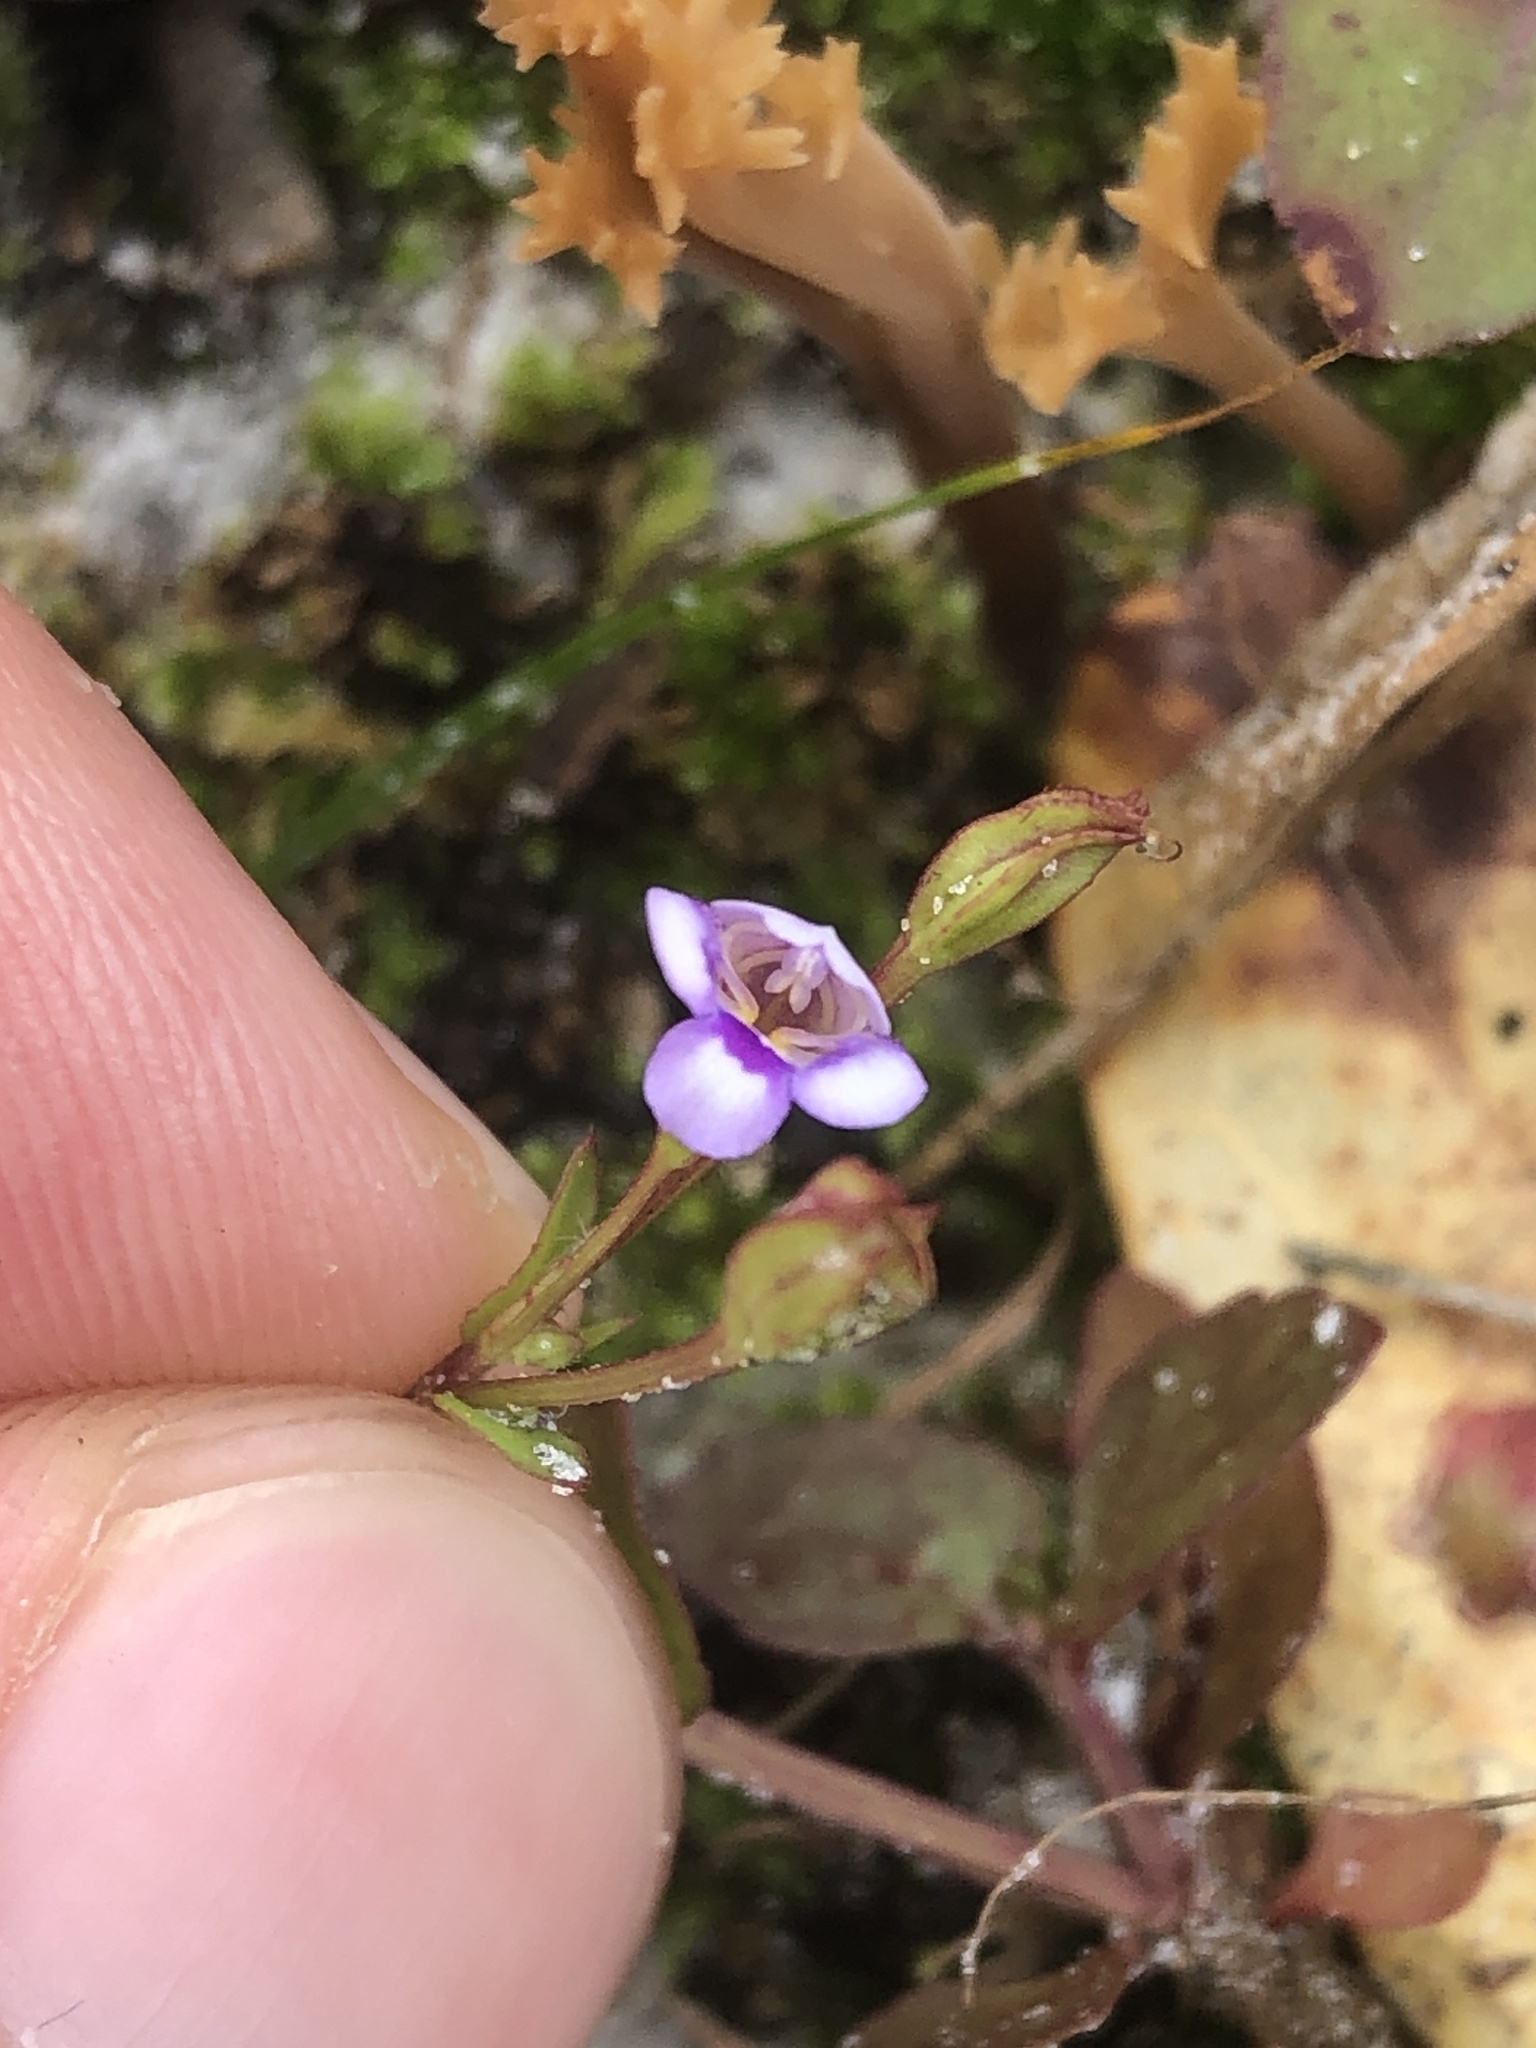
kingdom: Plantae
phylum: Tracheophyta
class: Magnoliopsida
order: Lamiales
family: Linderniaceae
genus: Torenia
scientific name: Torenia crustacea
